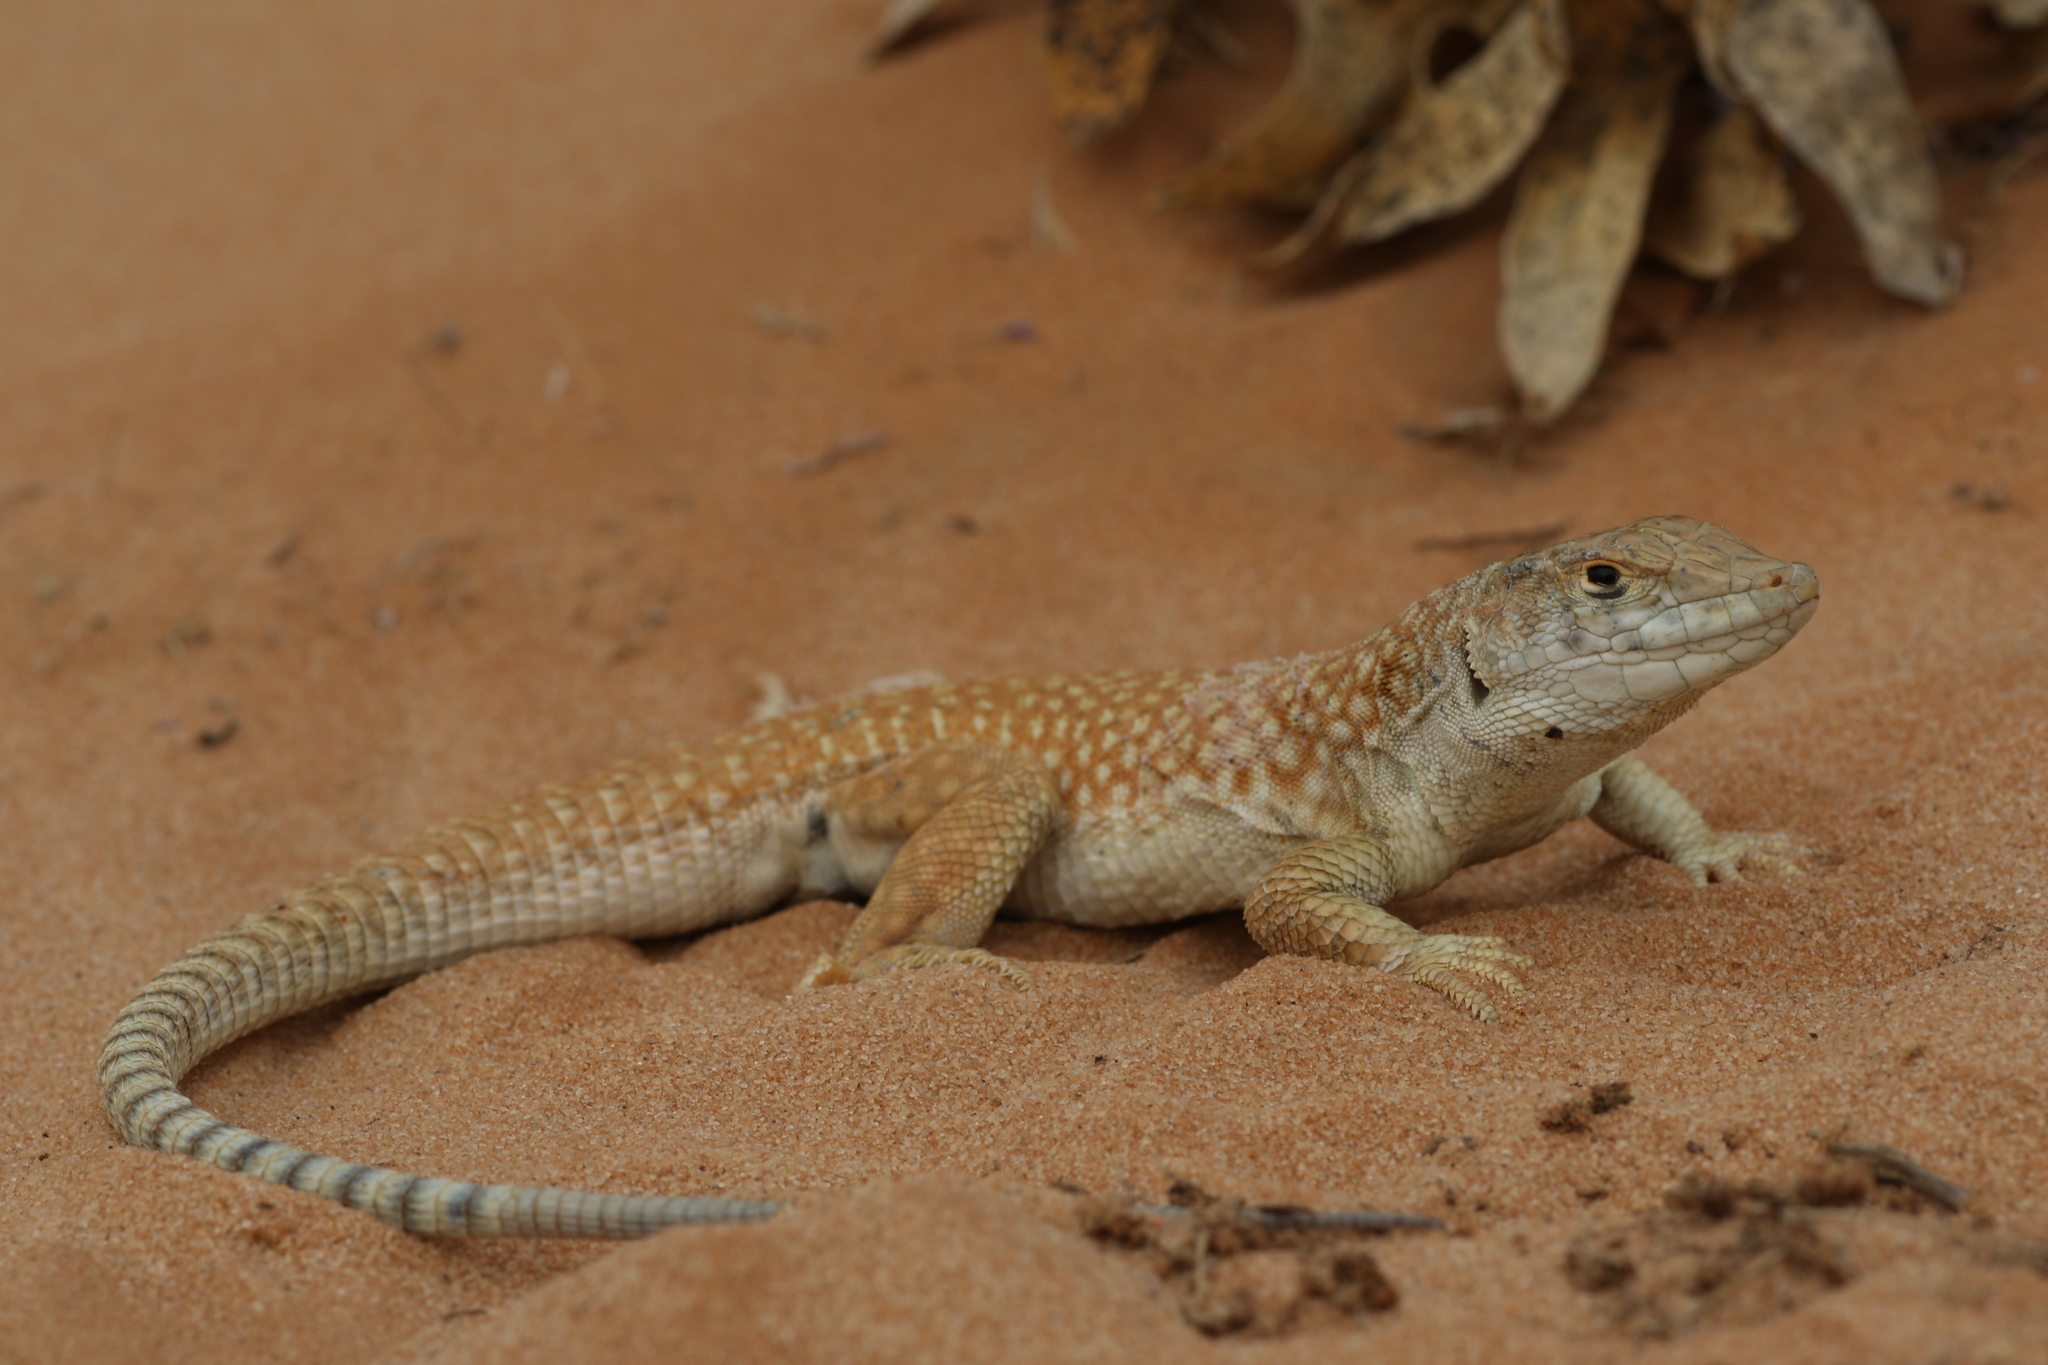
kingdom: Animalia
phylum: Chordata
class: Squamata
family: Lacertidae
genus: Acanthodactylus
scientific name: Acanthodactylus schmidti
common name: Schmidt's fringe-toed lizard
